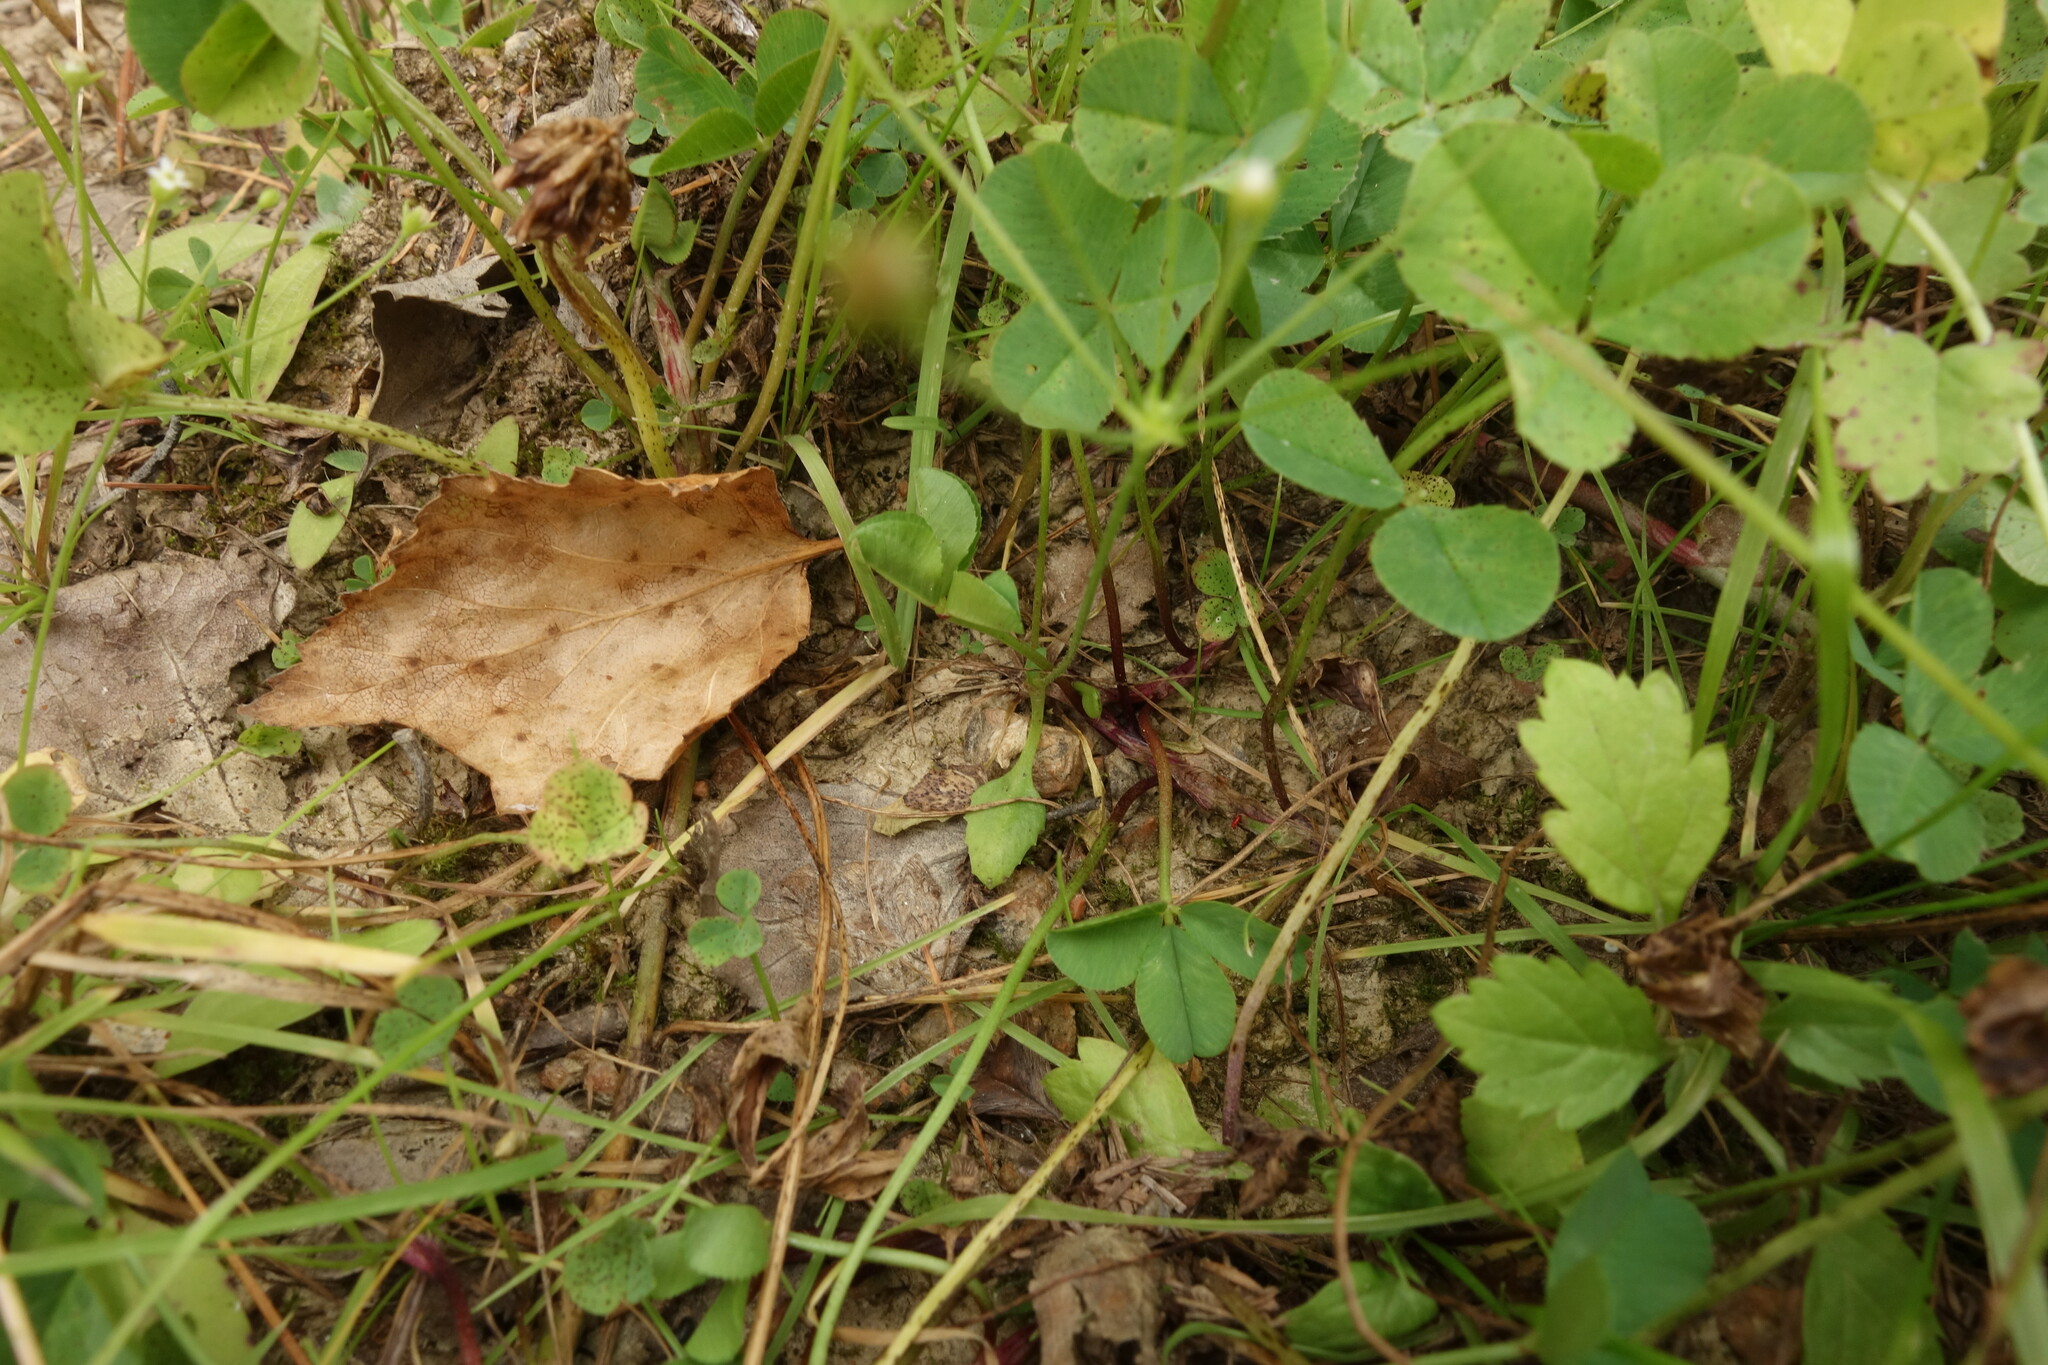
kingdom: Plantae
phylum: Tracheophyta
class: Magnoliopsida
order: Ericales
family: Primulaceae
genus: Androsace
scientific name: Androsace filiformis
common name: Filiform rock jasmine
